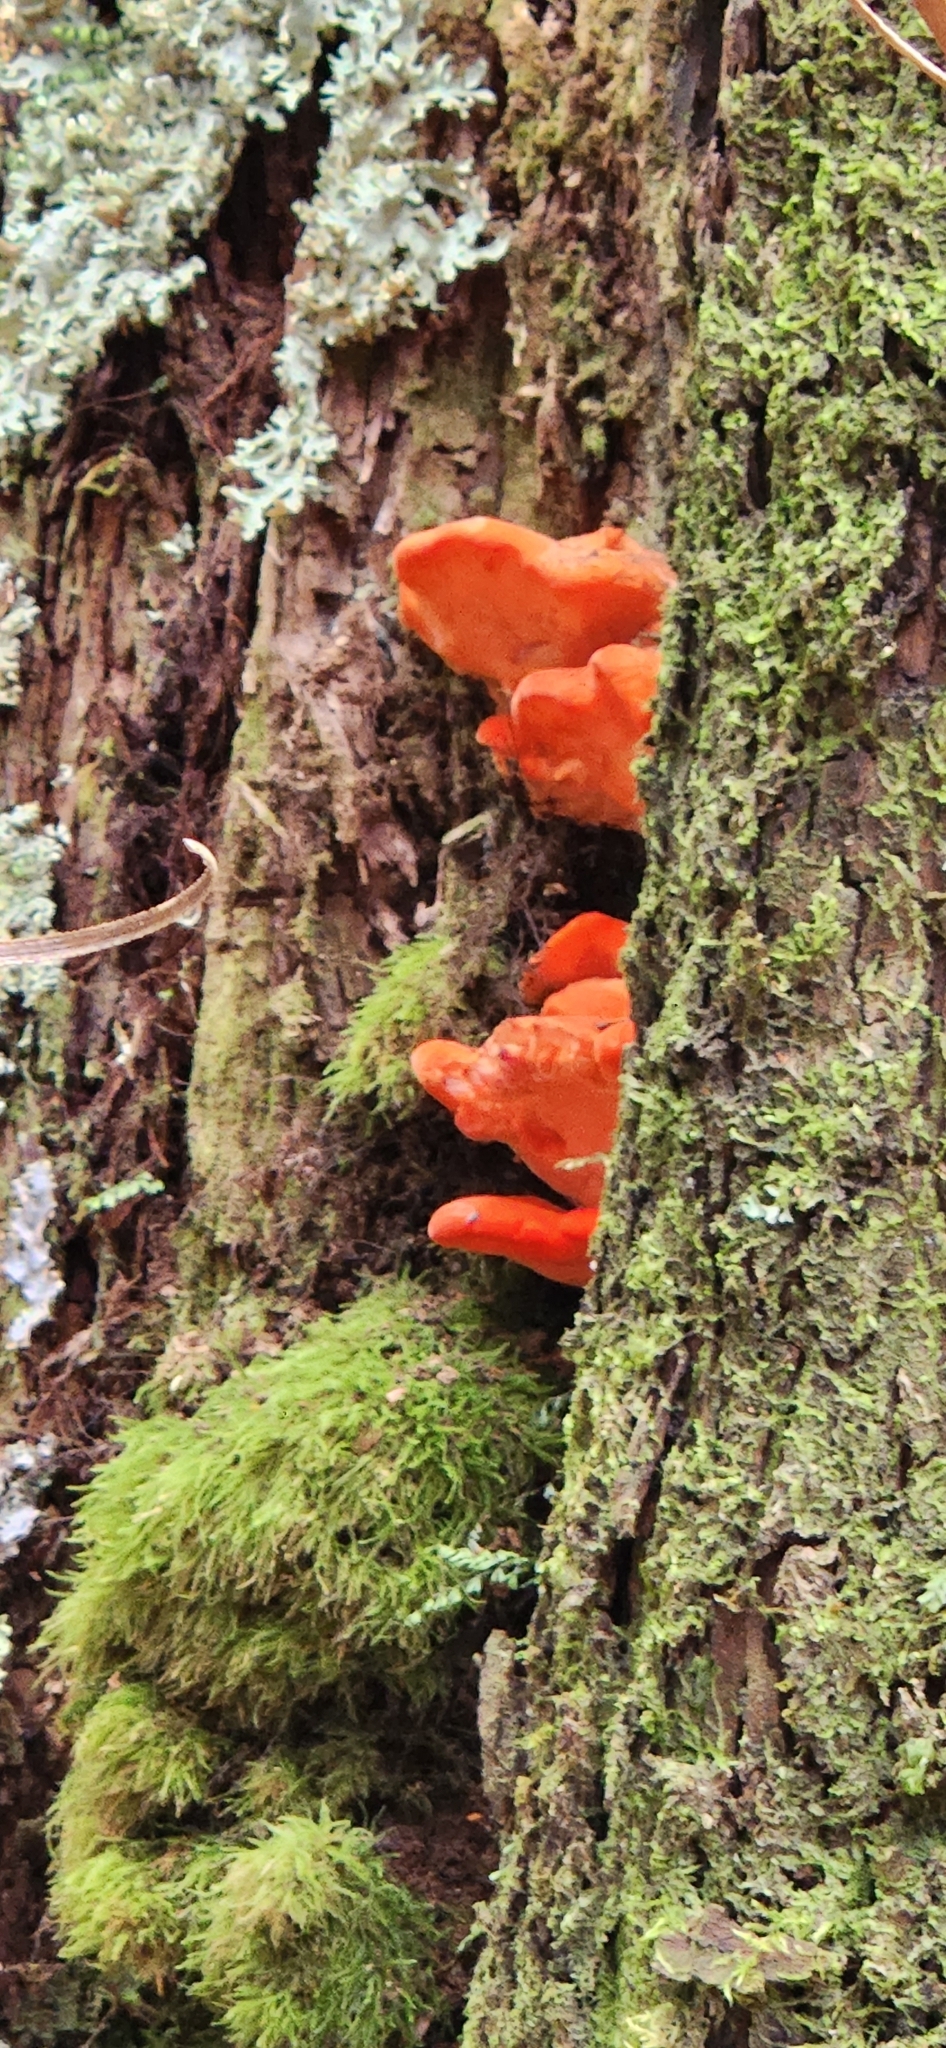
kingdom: Fungi
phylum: Basidiomycota
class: Agaricomycetes
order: Polyporales
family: Incrustoporiaceae
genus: Tyromyces
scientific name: Tyromyces pulcherrimus
